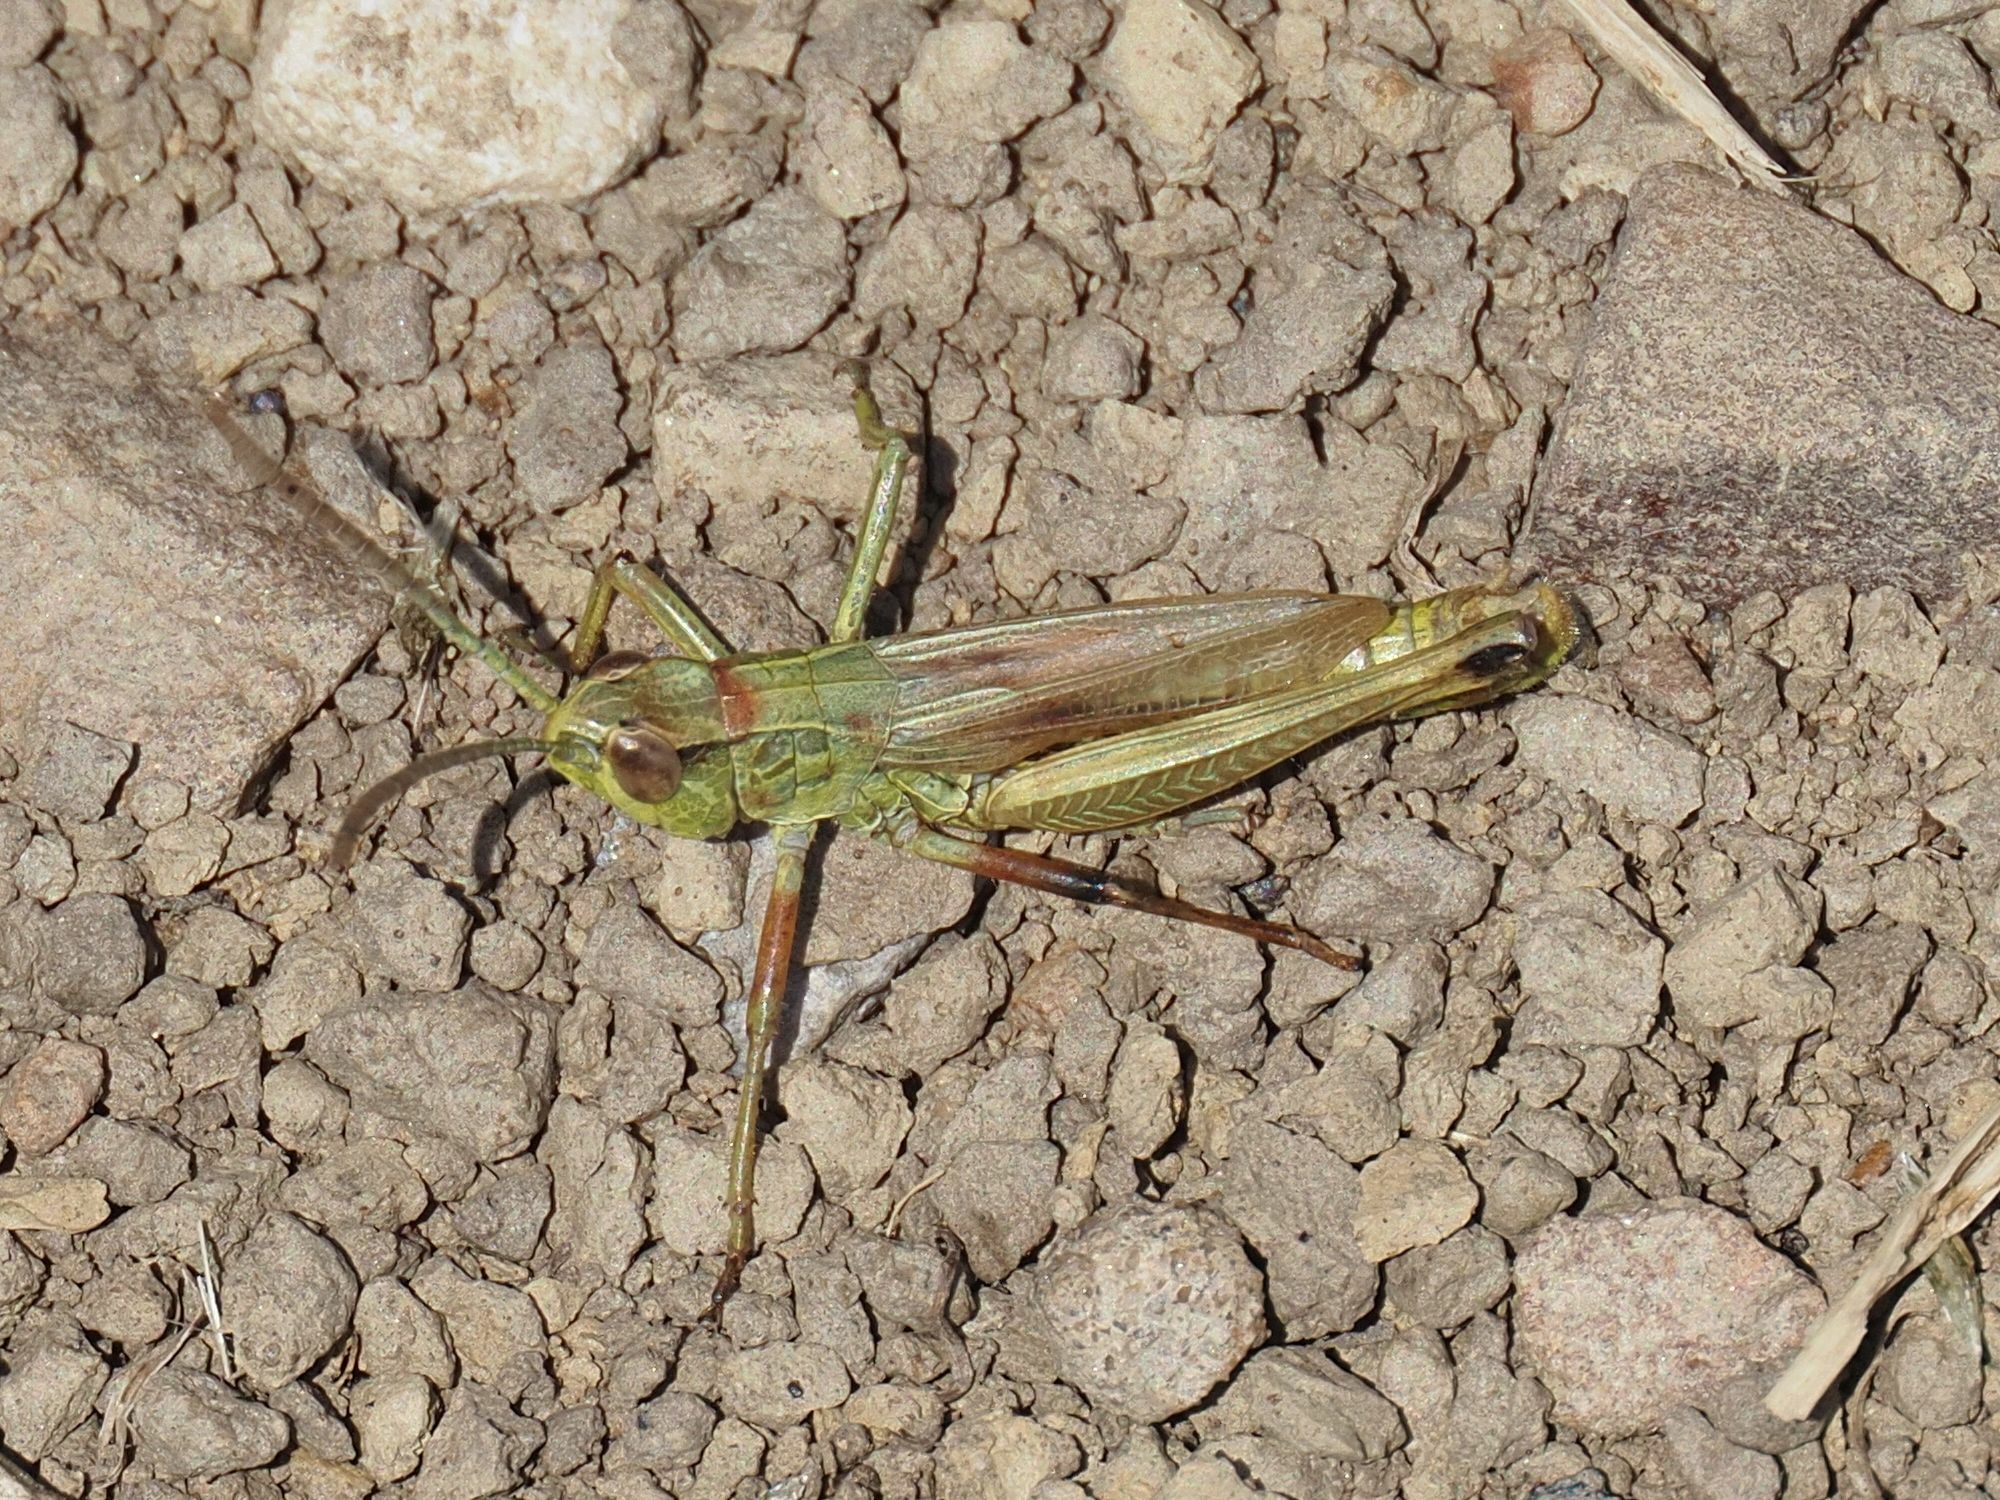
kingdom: Animalia
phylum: Arthropoda
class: Insecta
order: Orthoptera
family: Acrididae
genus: Pseudochorthippus
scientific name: Pseudochorthippus parallelus
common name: Meadow grasshopper
